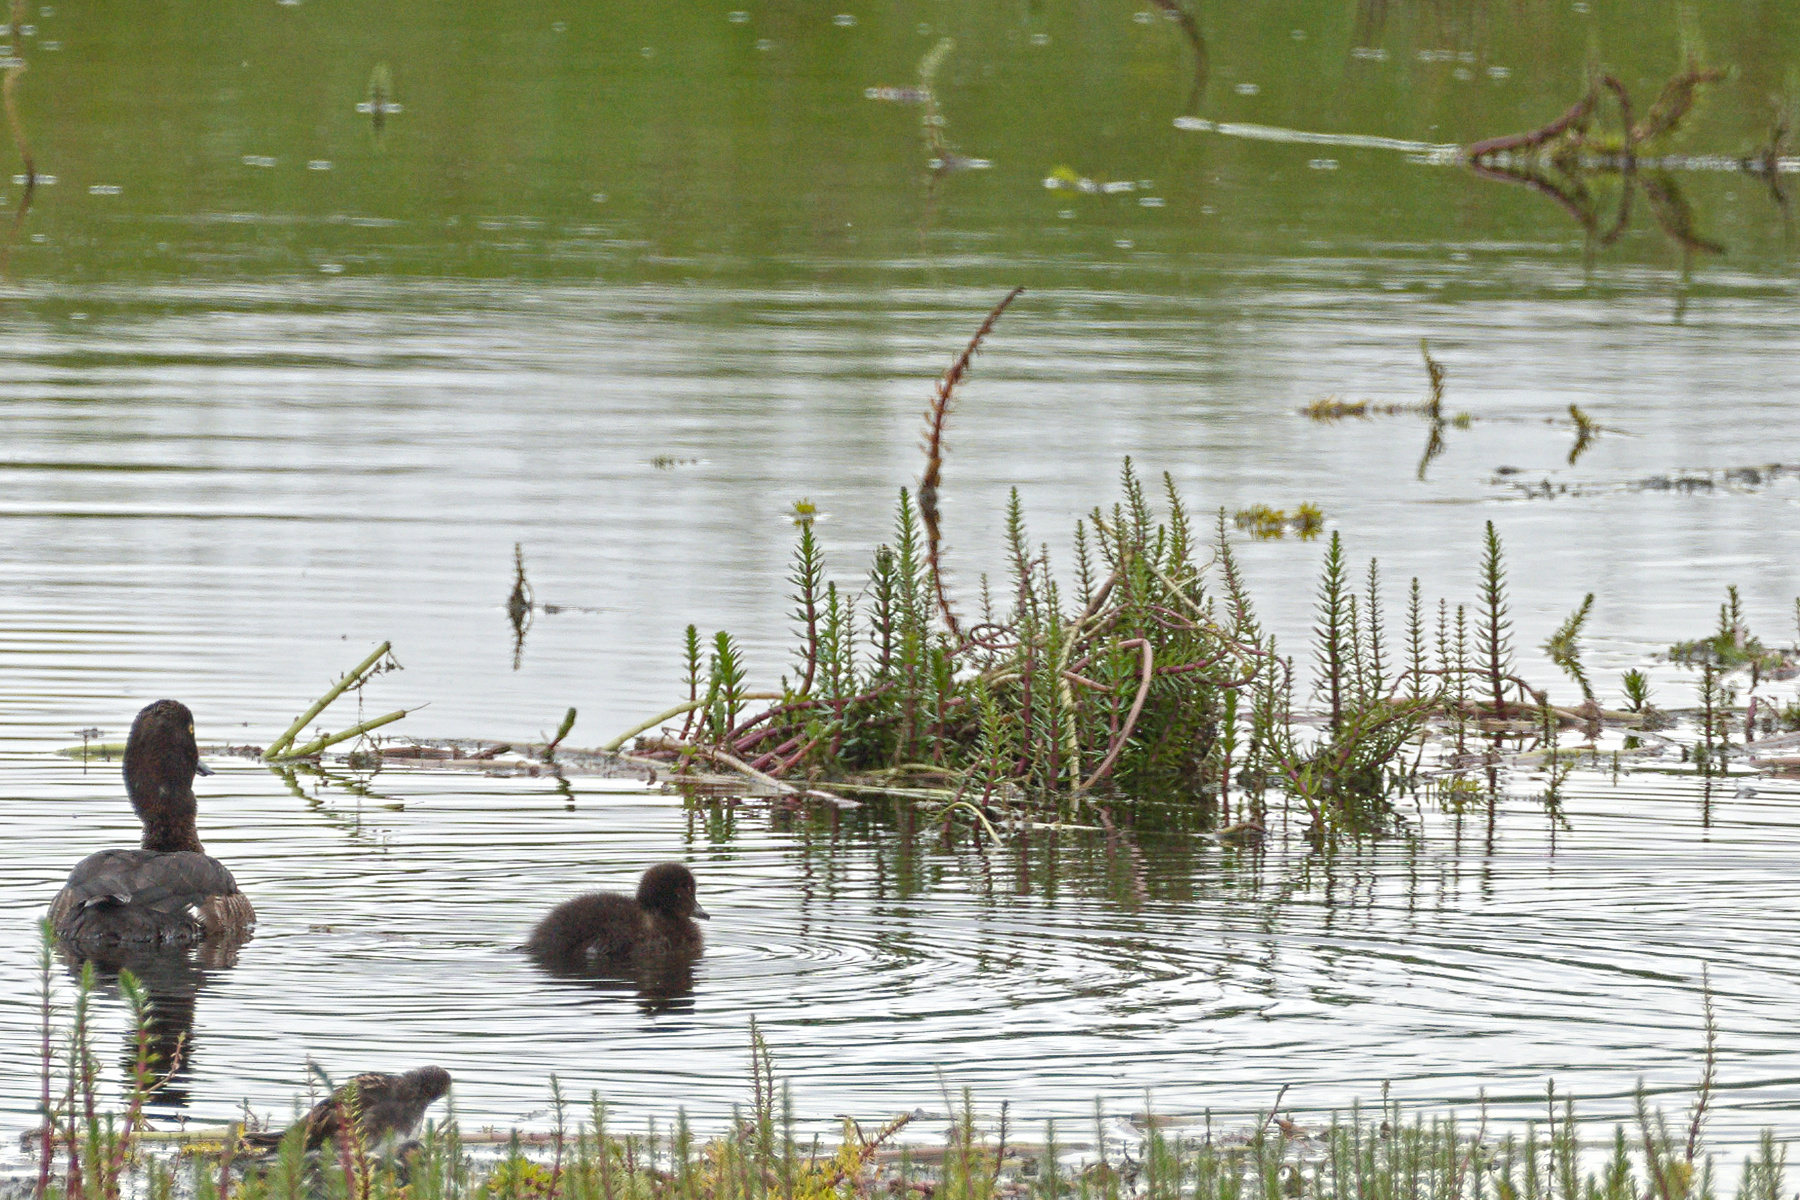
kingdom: Plantae
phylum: Tracheophyta
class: Magnoliopsida
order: Lamiales
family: Plantaginaceae
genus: Hippuris
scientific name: Hippuris vulgaris
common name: Mare's-tail
